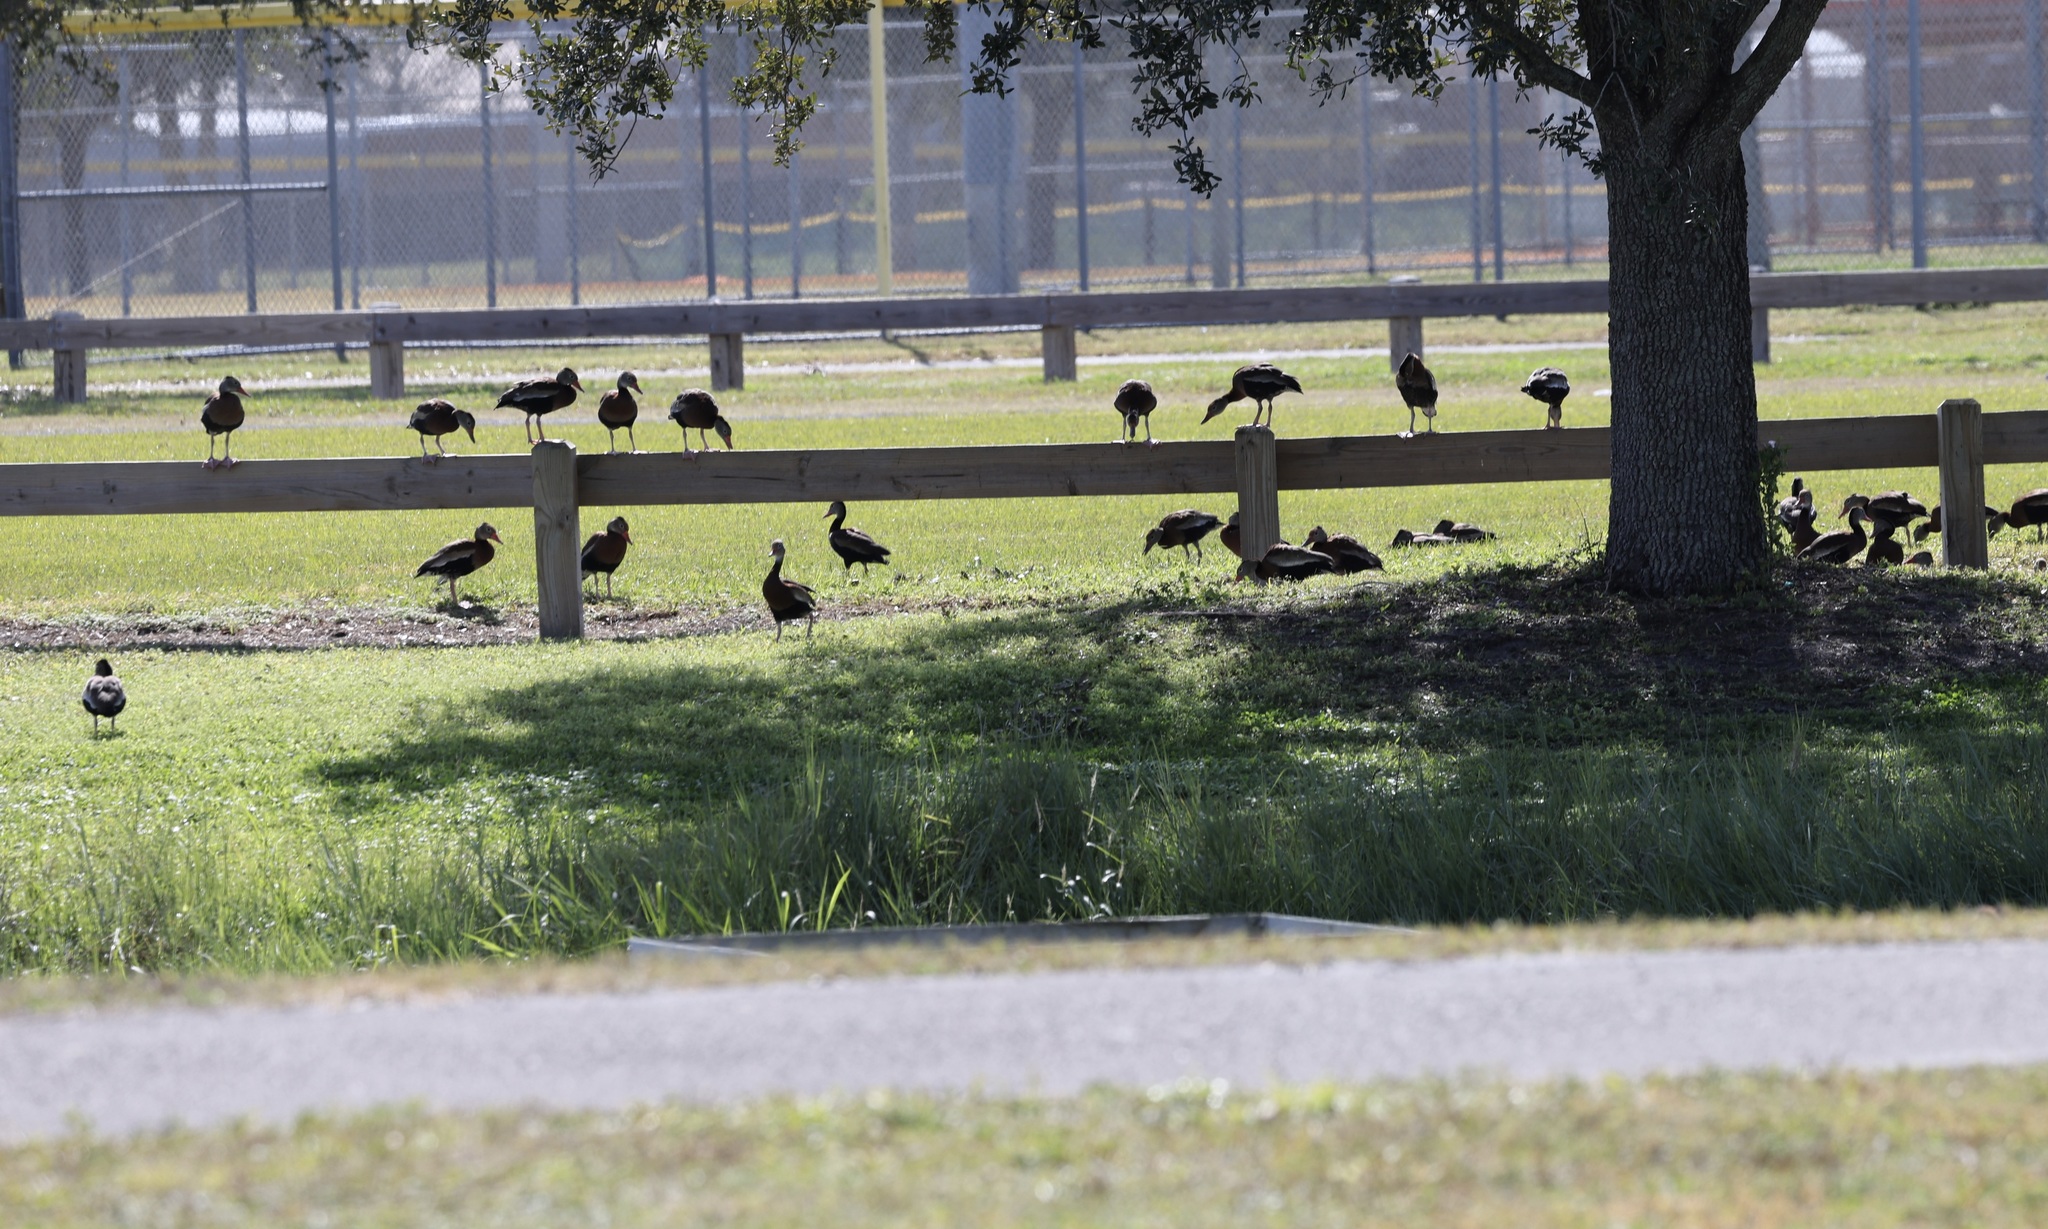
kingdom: Animalia
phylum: Chordata
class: Aves
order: Anseriformes
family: Anatidae
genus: Dendrocygna
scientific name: Dendrocygna autumnalis
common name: Black-bellied whistling duck
